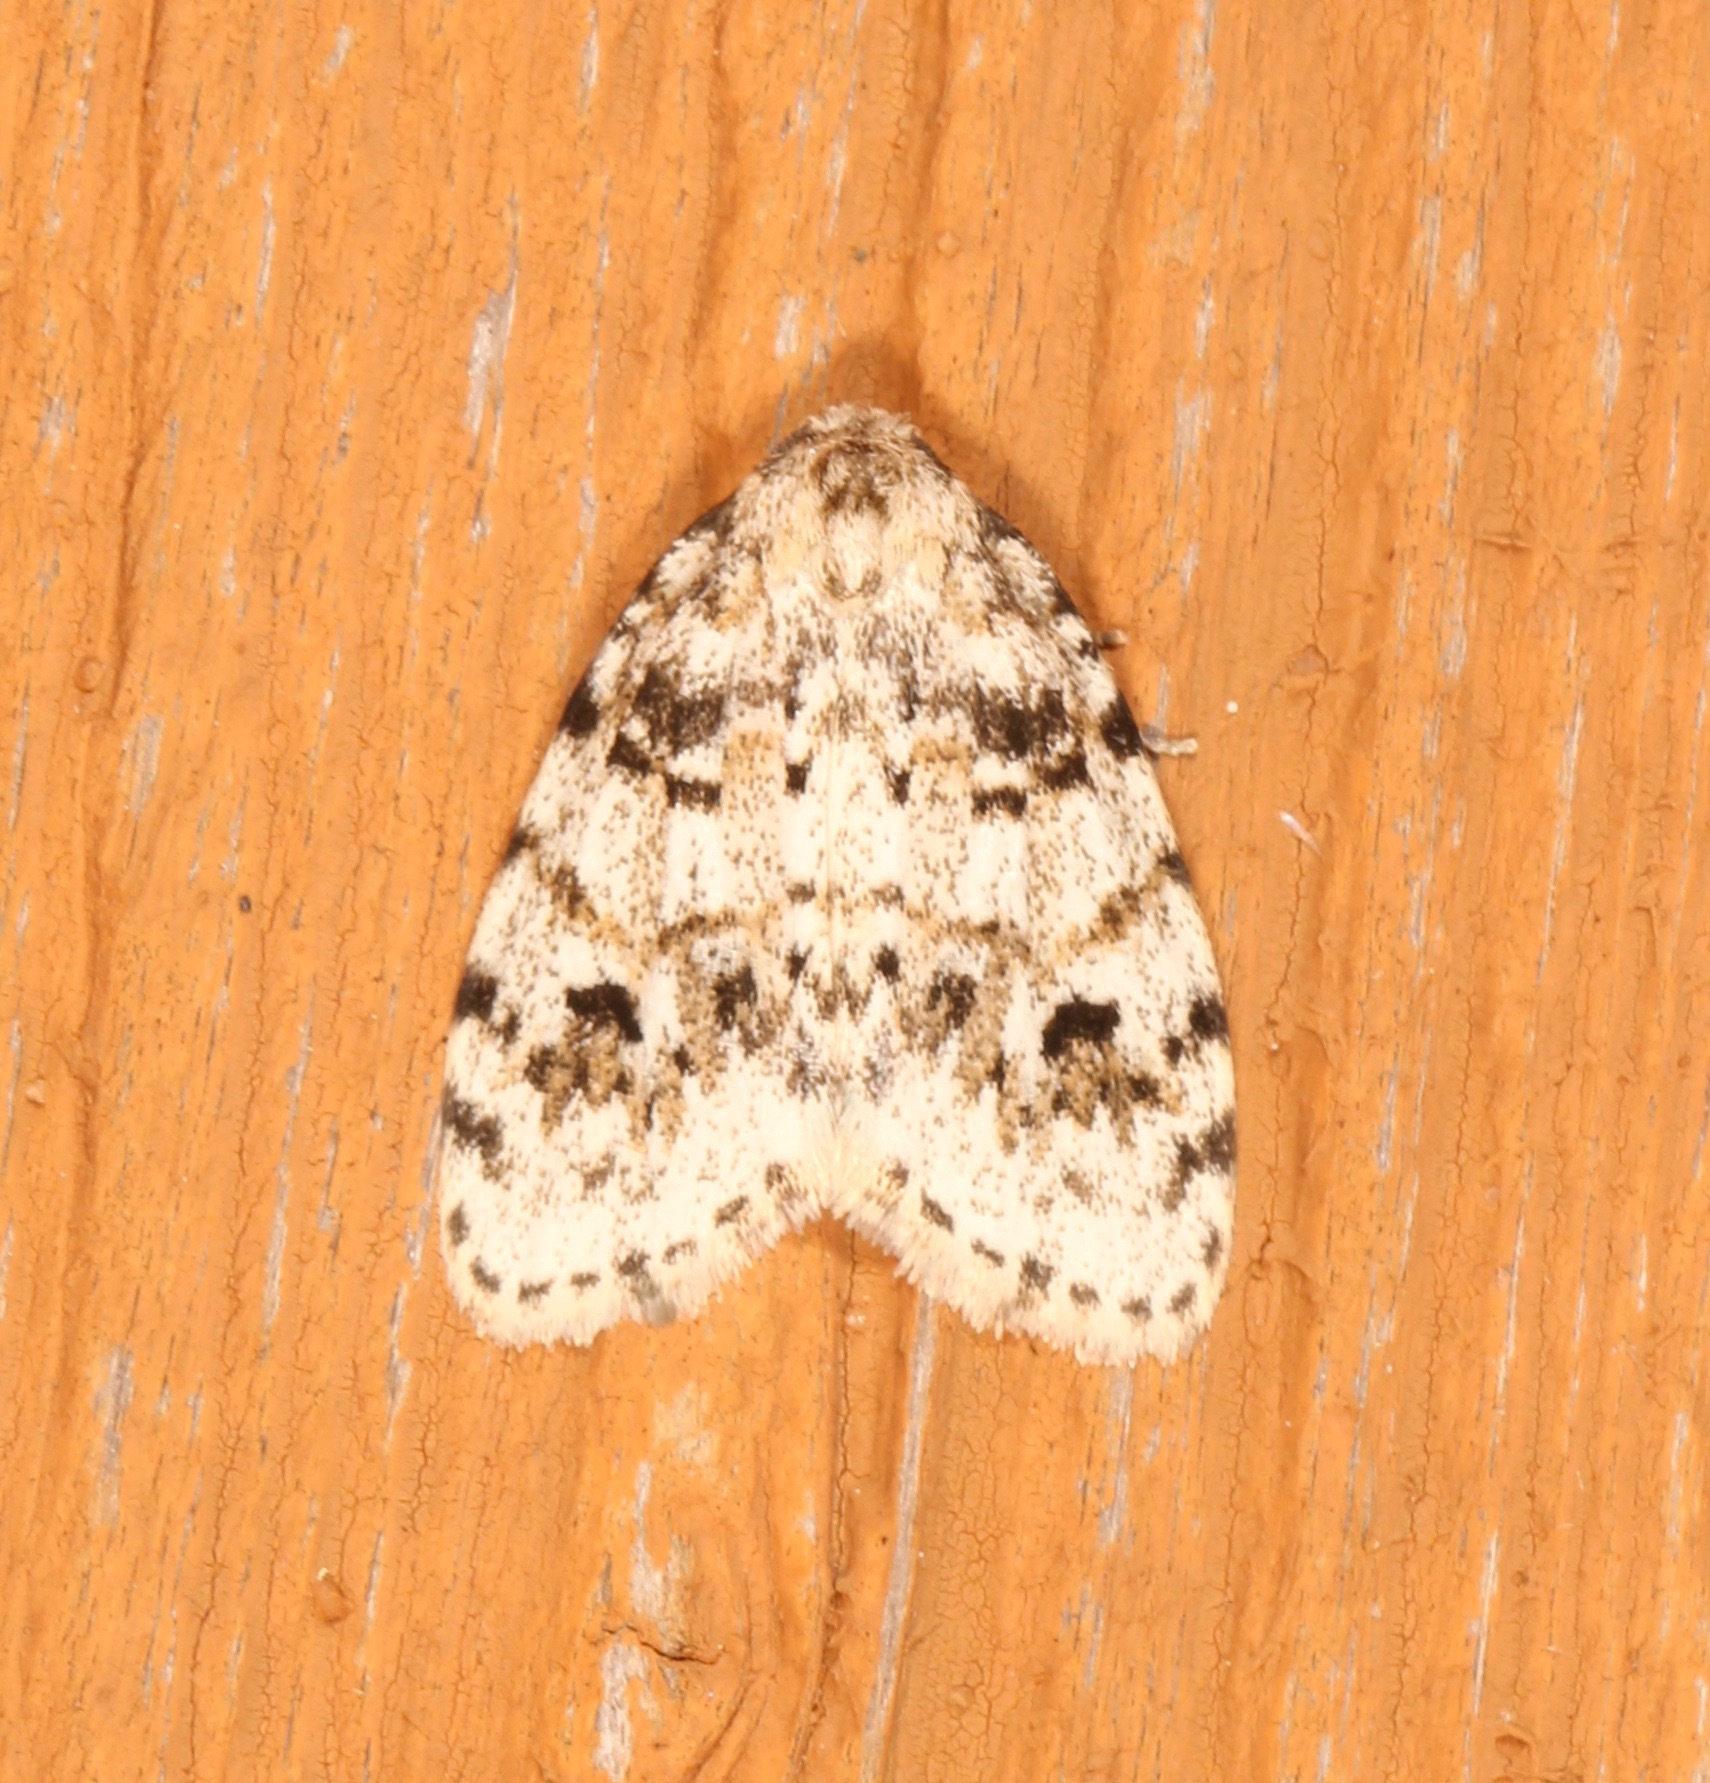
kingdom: Animalia
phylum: Arthropoda
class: Insecta
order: Lepidoptera
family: Erebidae
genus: Clemensia
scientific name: Clemensia ochreata
